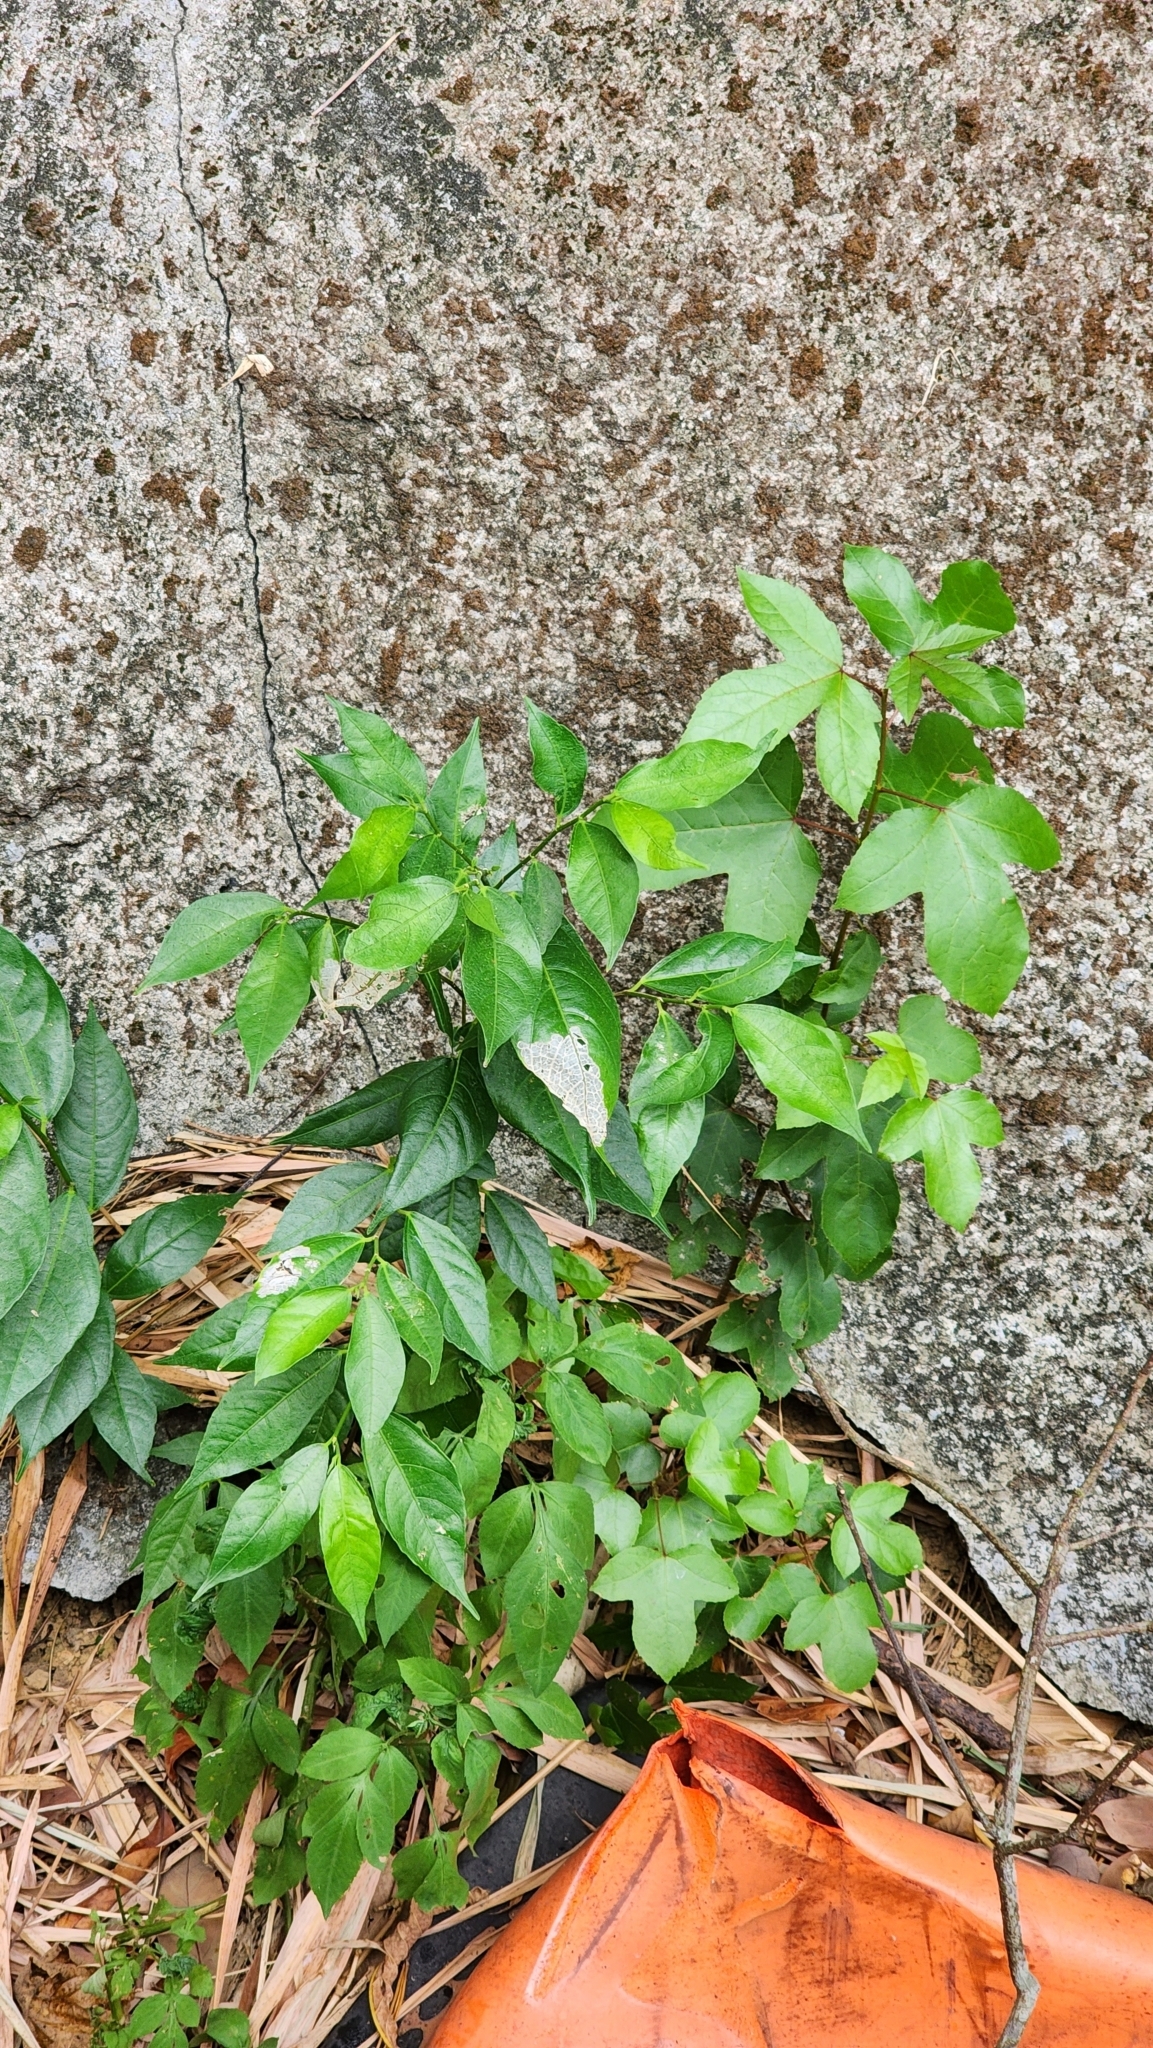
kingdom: Plantae
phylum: Tracheophyta
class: Magnoliopsida
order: Rosales
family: Moraceae
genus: Ficus
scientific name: Ficus ampelos
